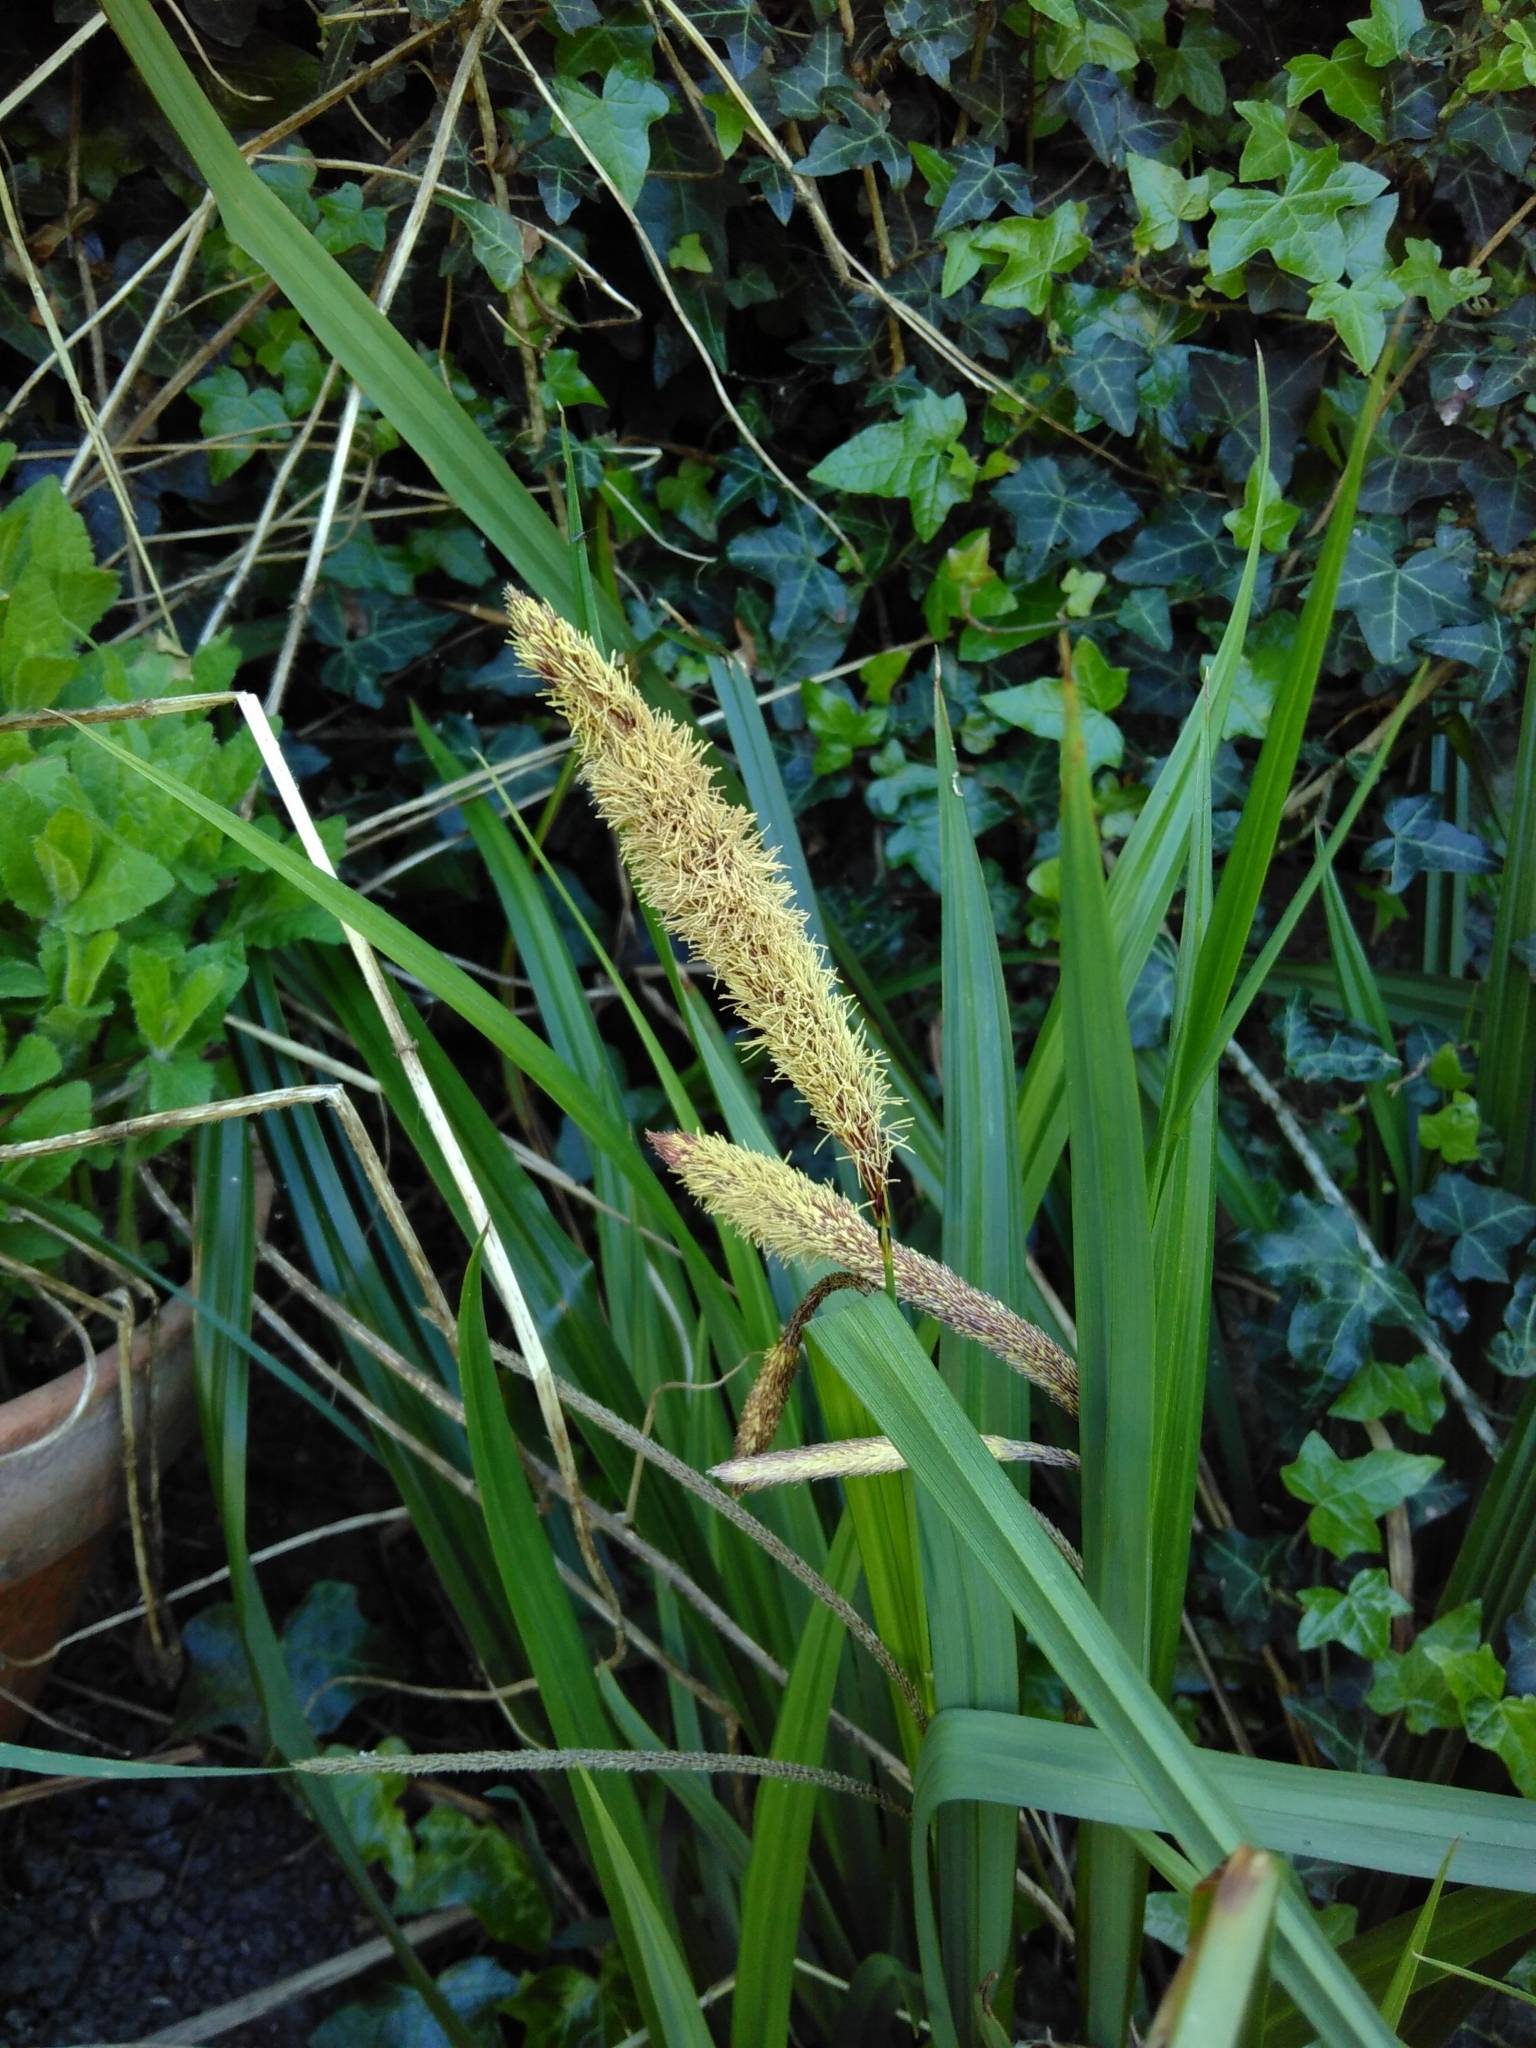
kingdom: Plantae
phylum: Tracheophyta
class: Liliopsida
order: Poales
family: Cyperaceae
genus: Carex
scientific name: Carex pendula
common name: Pendulous sedge
